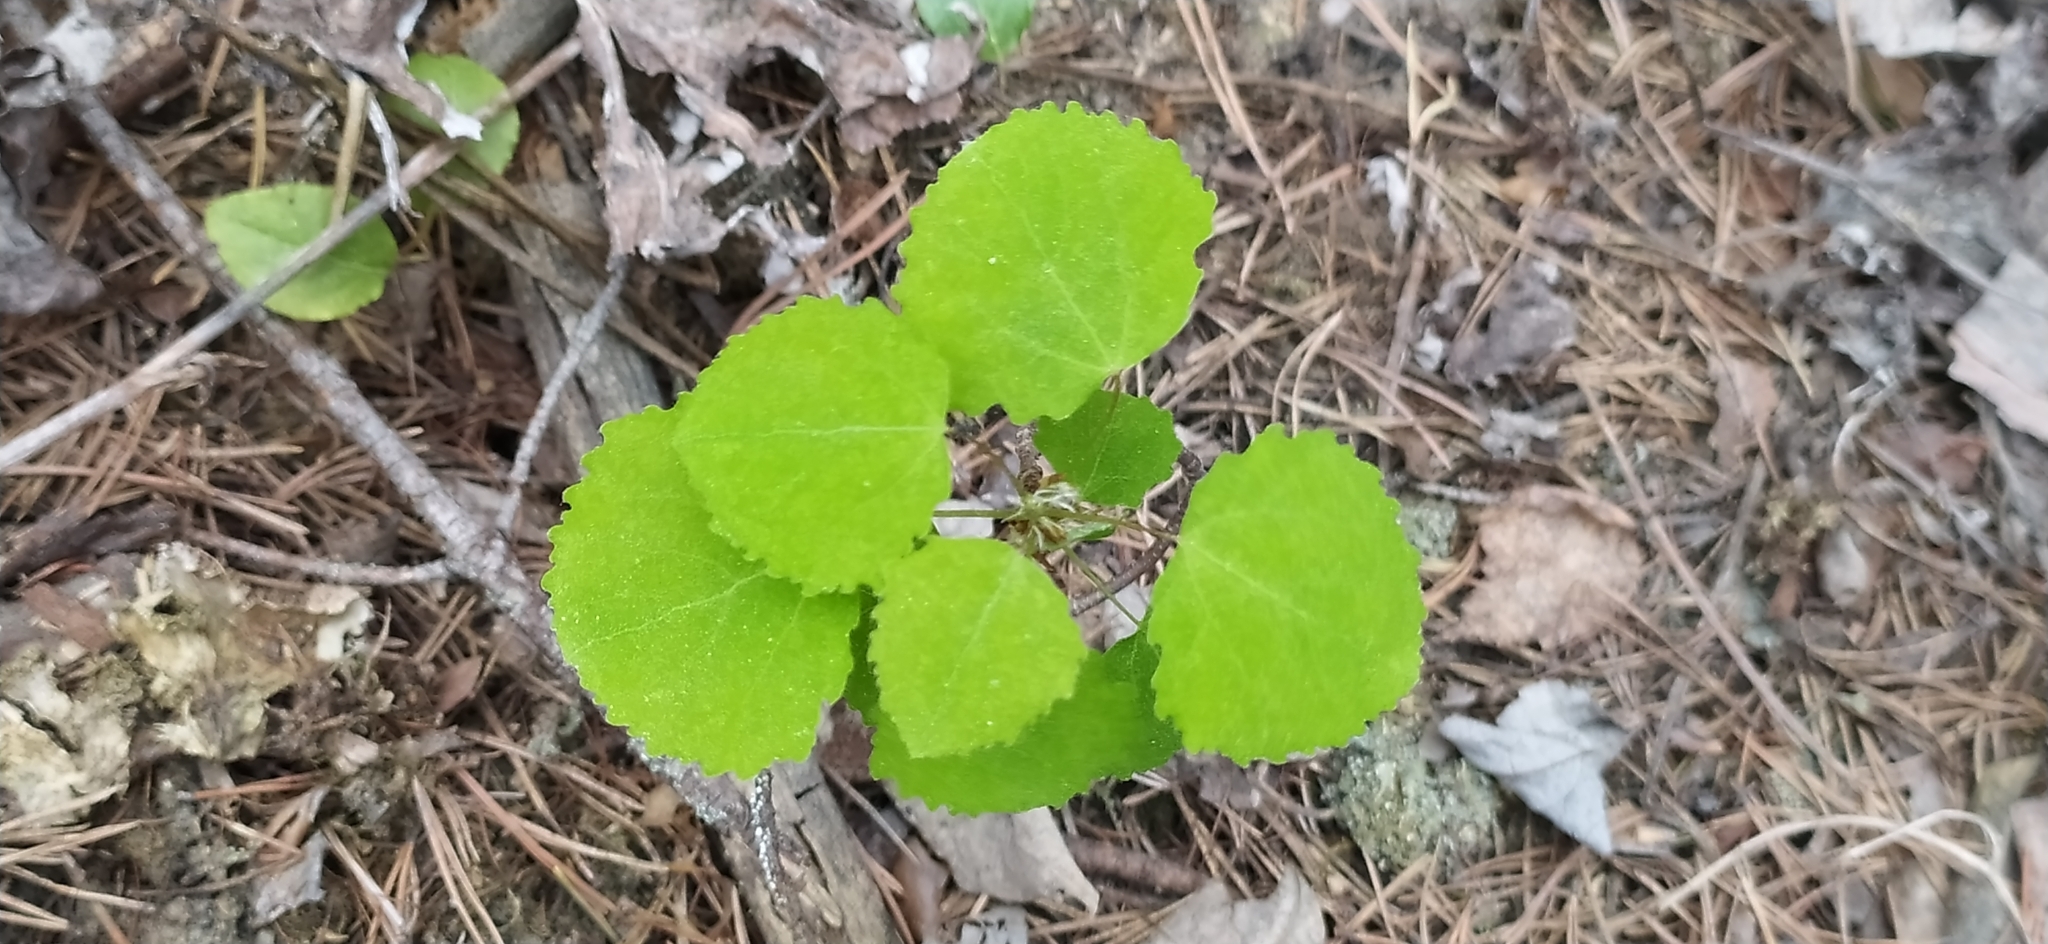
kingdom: Plantae
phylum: Tracheophyta
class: Magnoliopsida
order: Malpighiales
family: Salicaceae
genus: Populus
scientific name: Populus tremula
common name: European aspen
